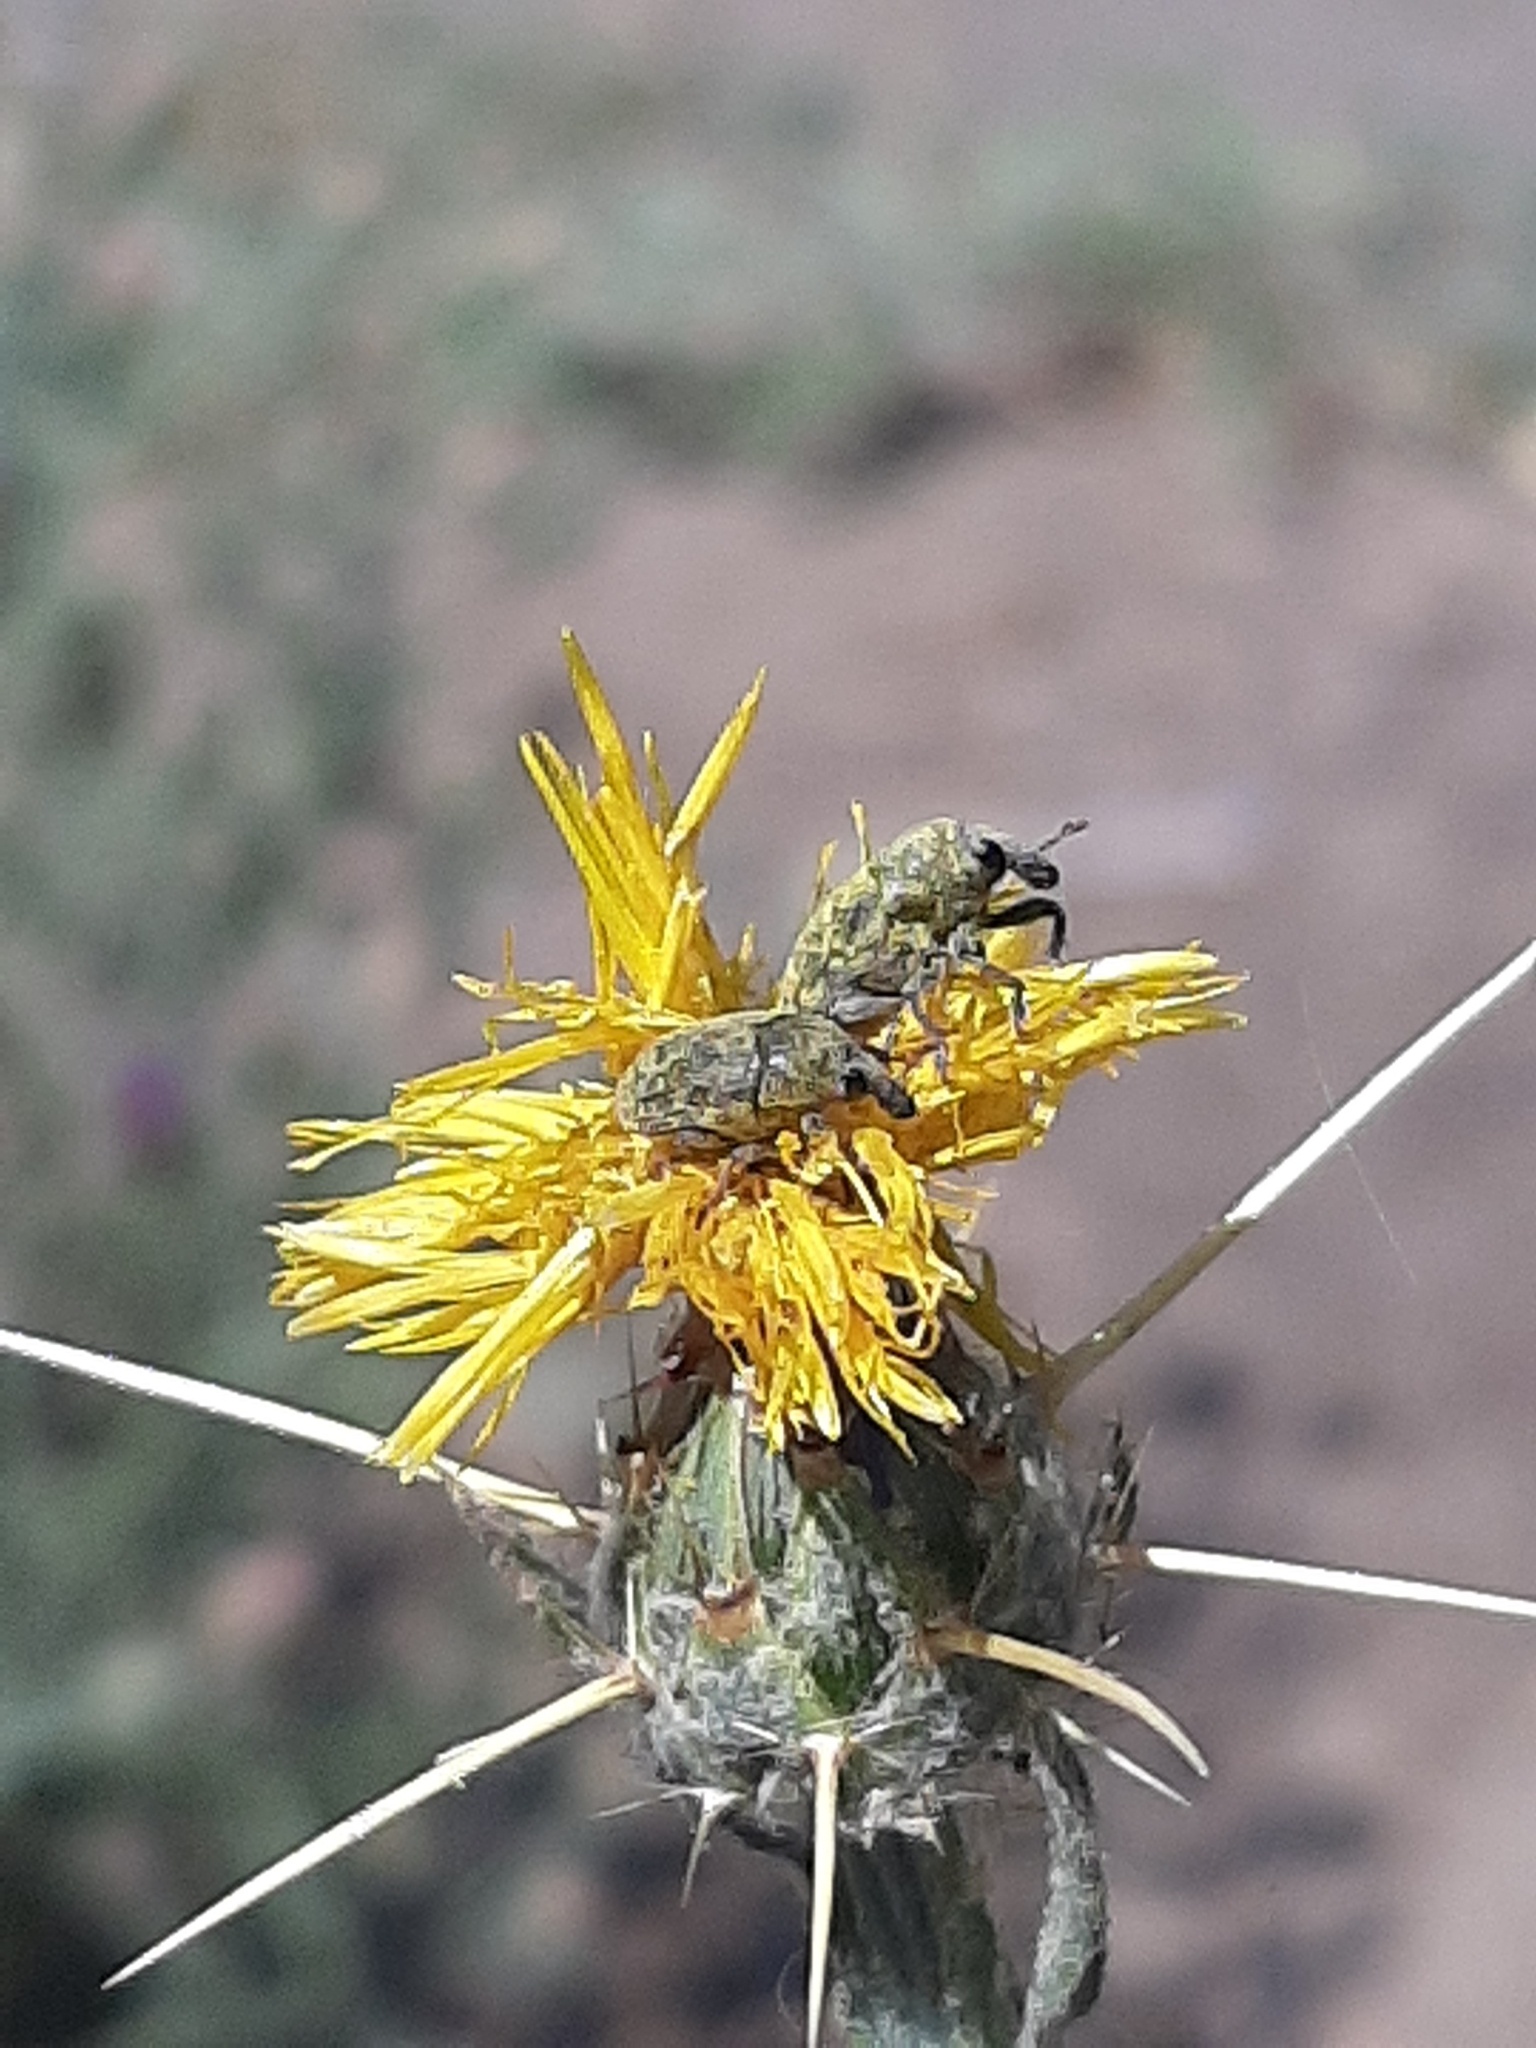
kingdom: Plantae
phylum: Tracheophyta
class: Magnoliopsida
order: Asterales
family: Asteraceae
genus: Centaurea
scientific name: Centaurea solstitialis
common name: Yellow star-thistle
